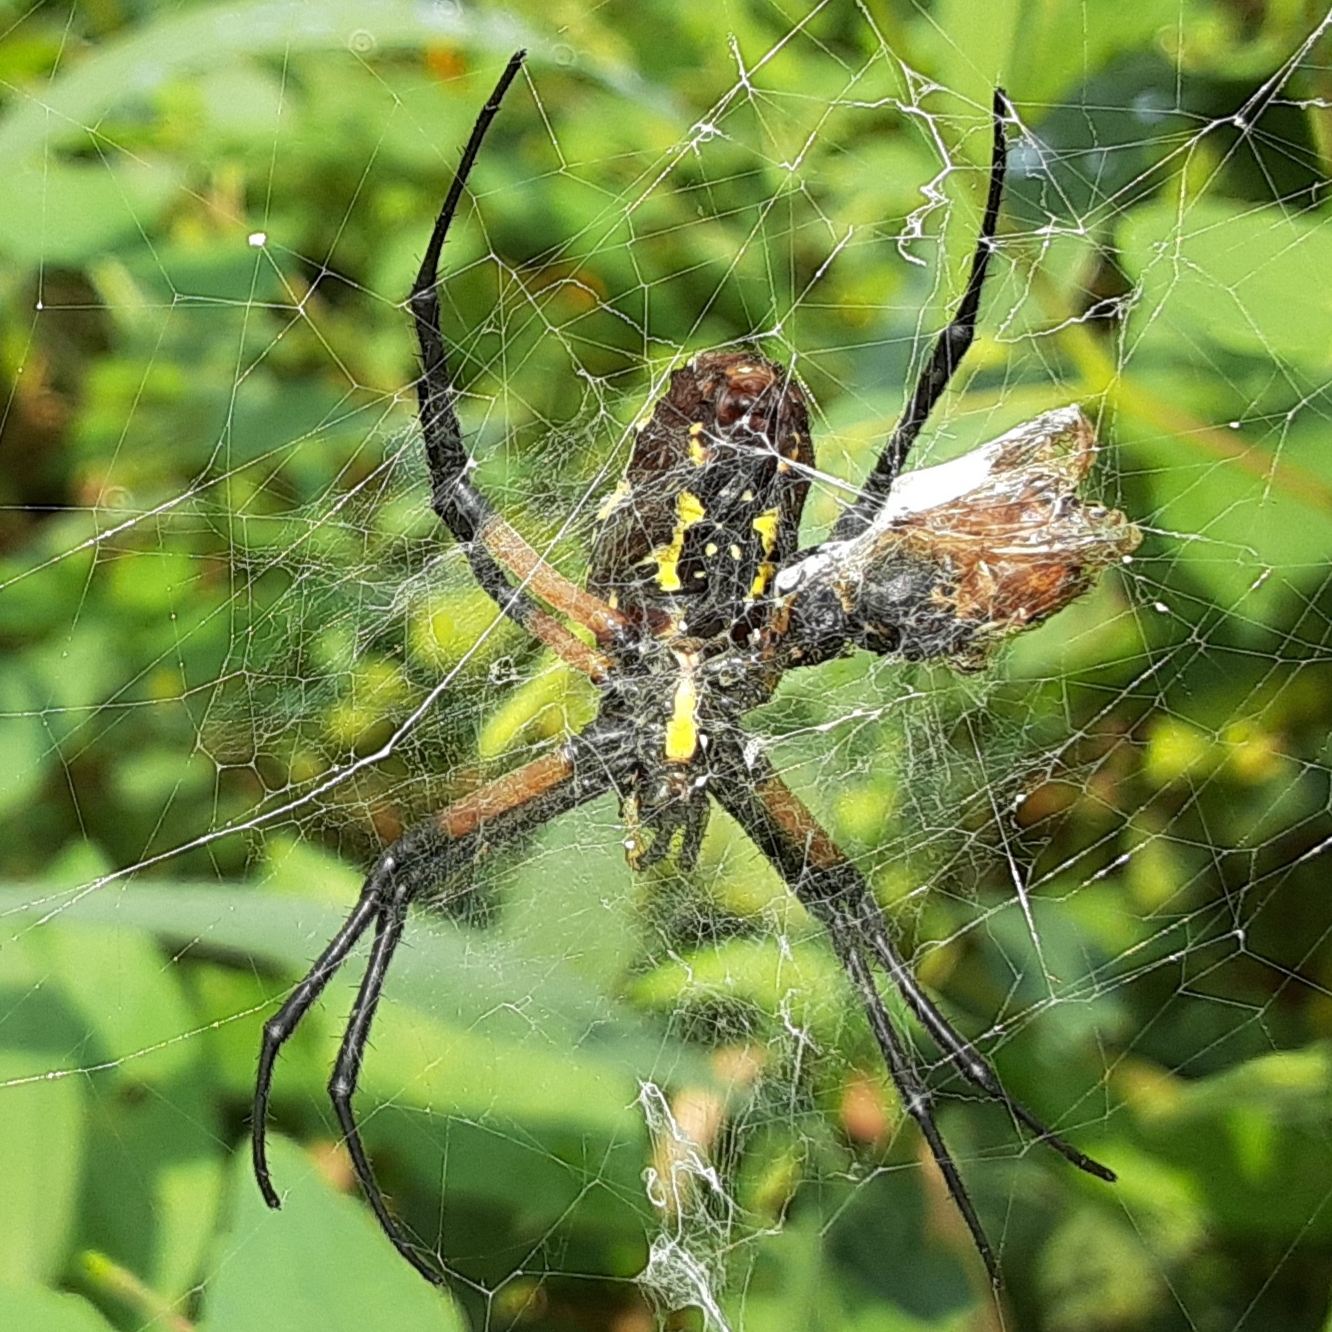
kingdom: Animalia
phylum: Arthropoda
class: Arachnida
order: Araneae
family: Araneidae
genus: Argiope
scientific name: Argiope aurantia
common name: Orb weavers
